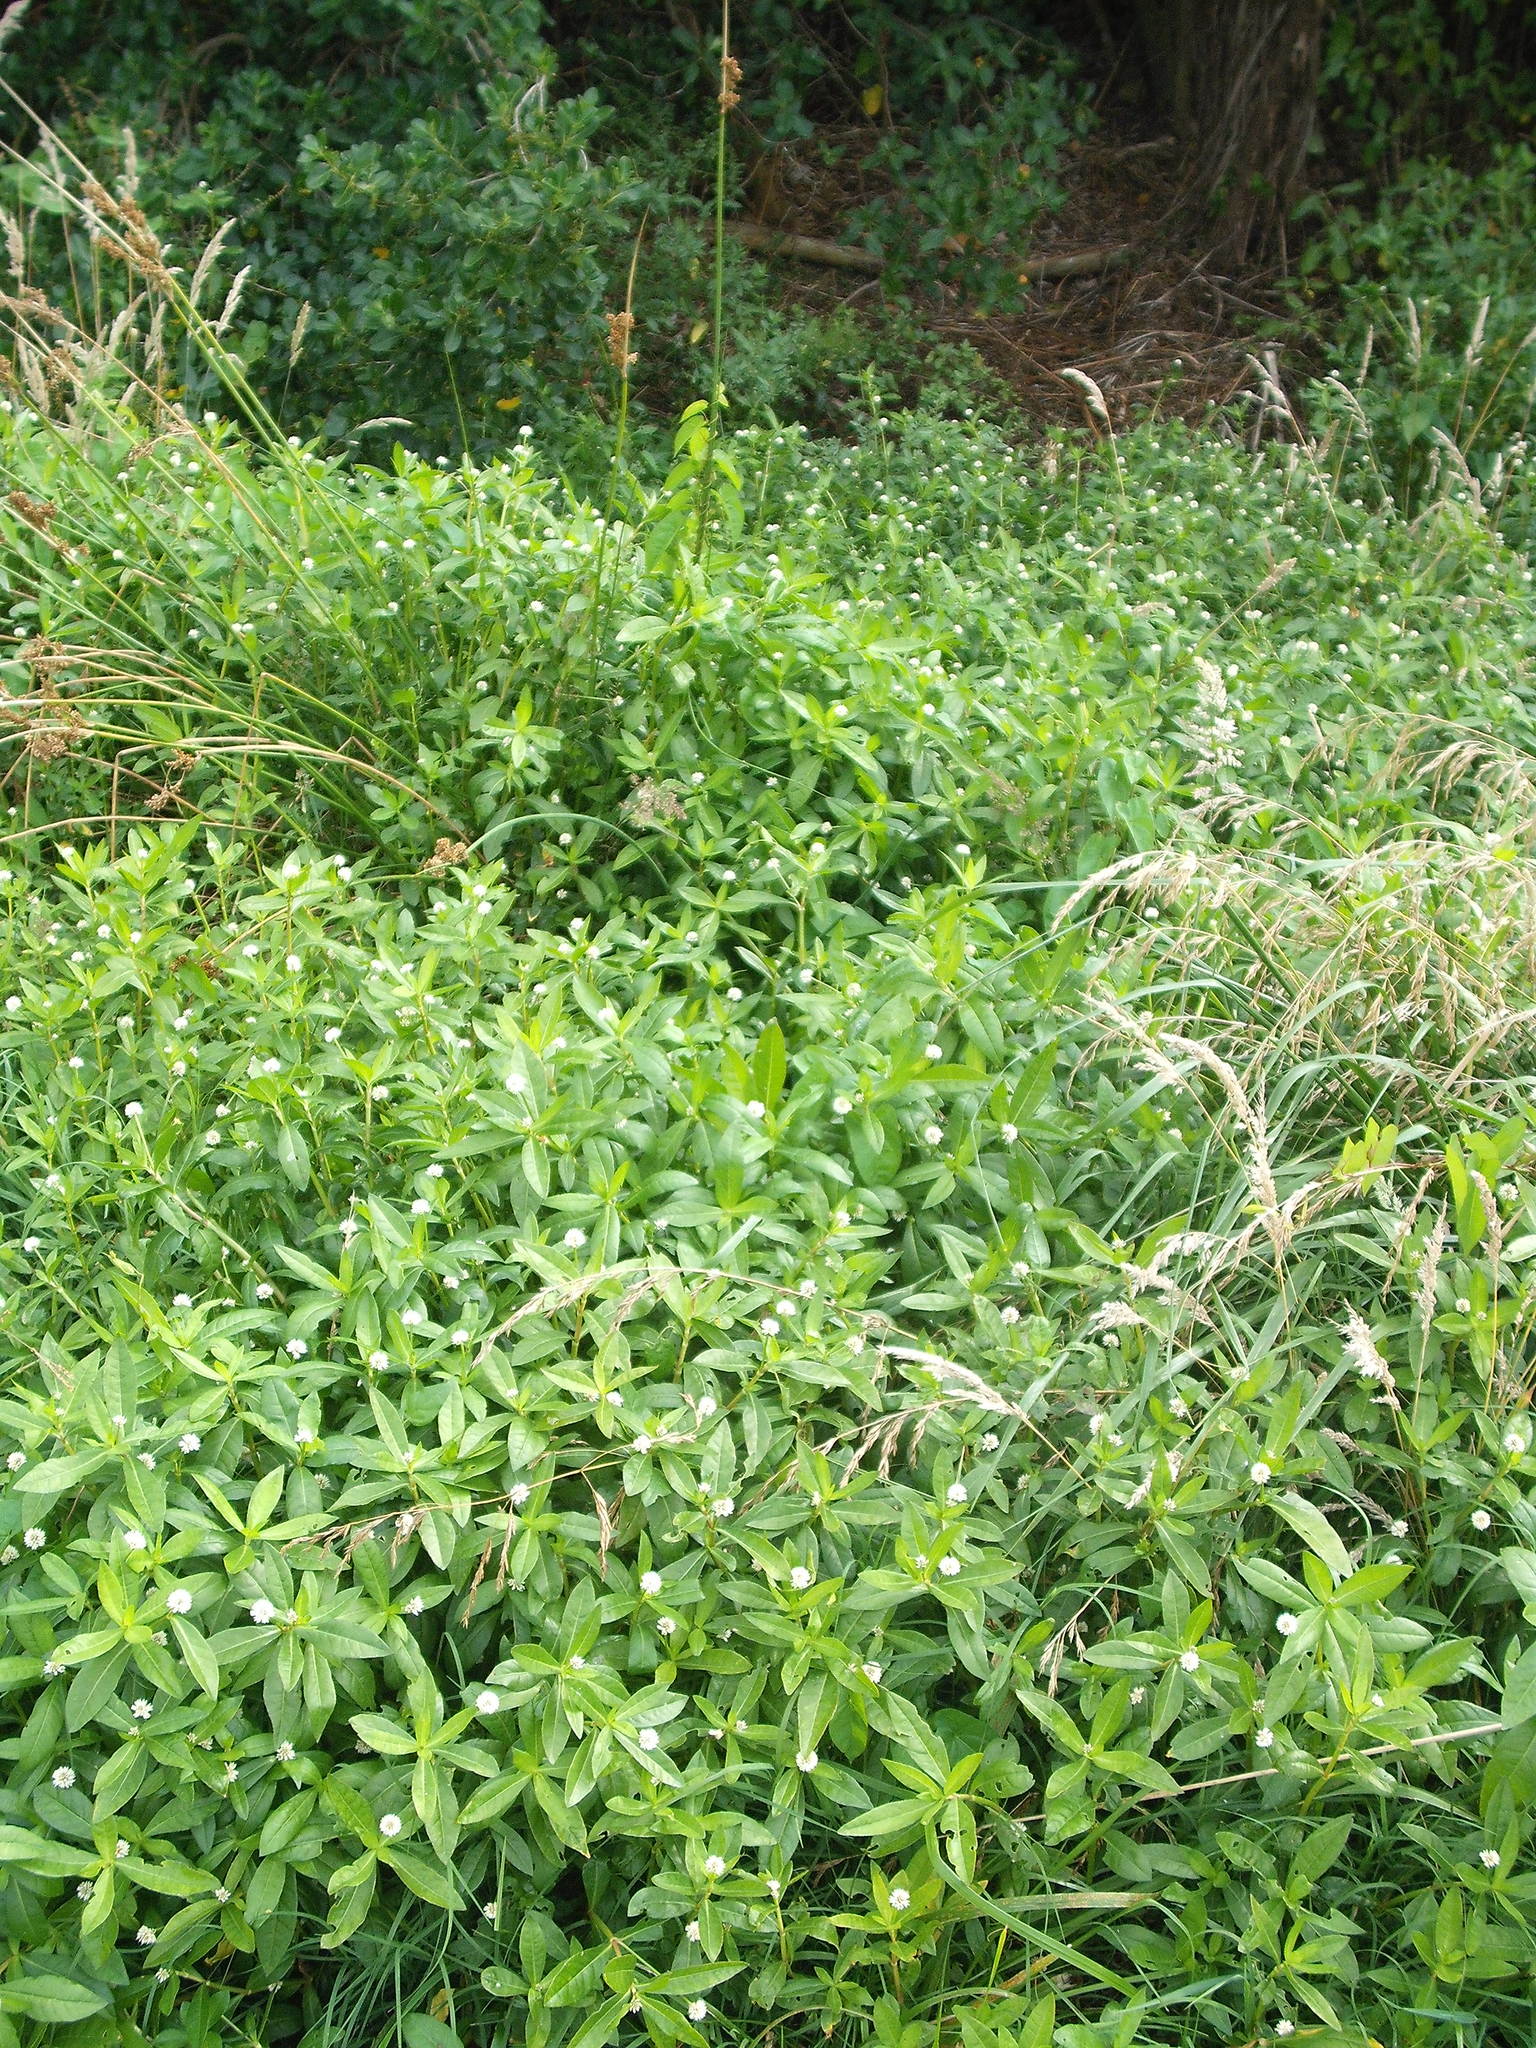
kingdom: Plantae
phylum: Tracheophyta
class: Magnoliopsida
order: Caryophyllales
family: Amaranthaceae
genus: Alternanthera
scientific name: Alternanthera philoxeroides
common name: Alligatorweed
